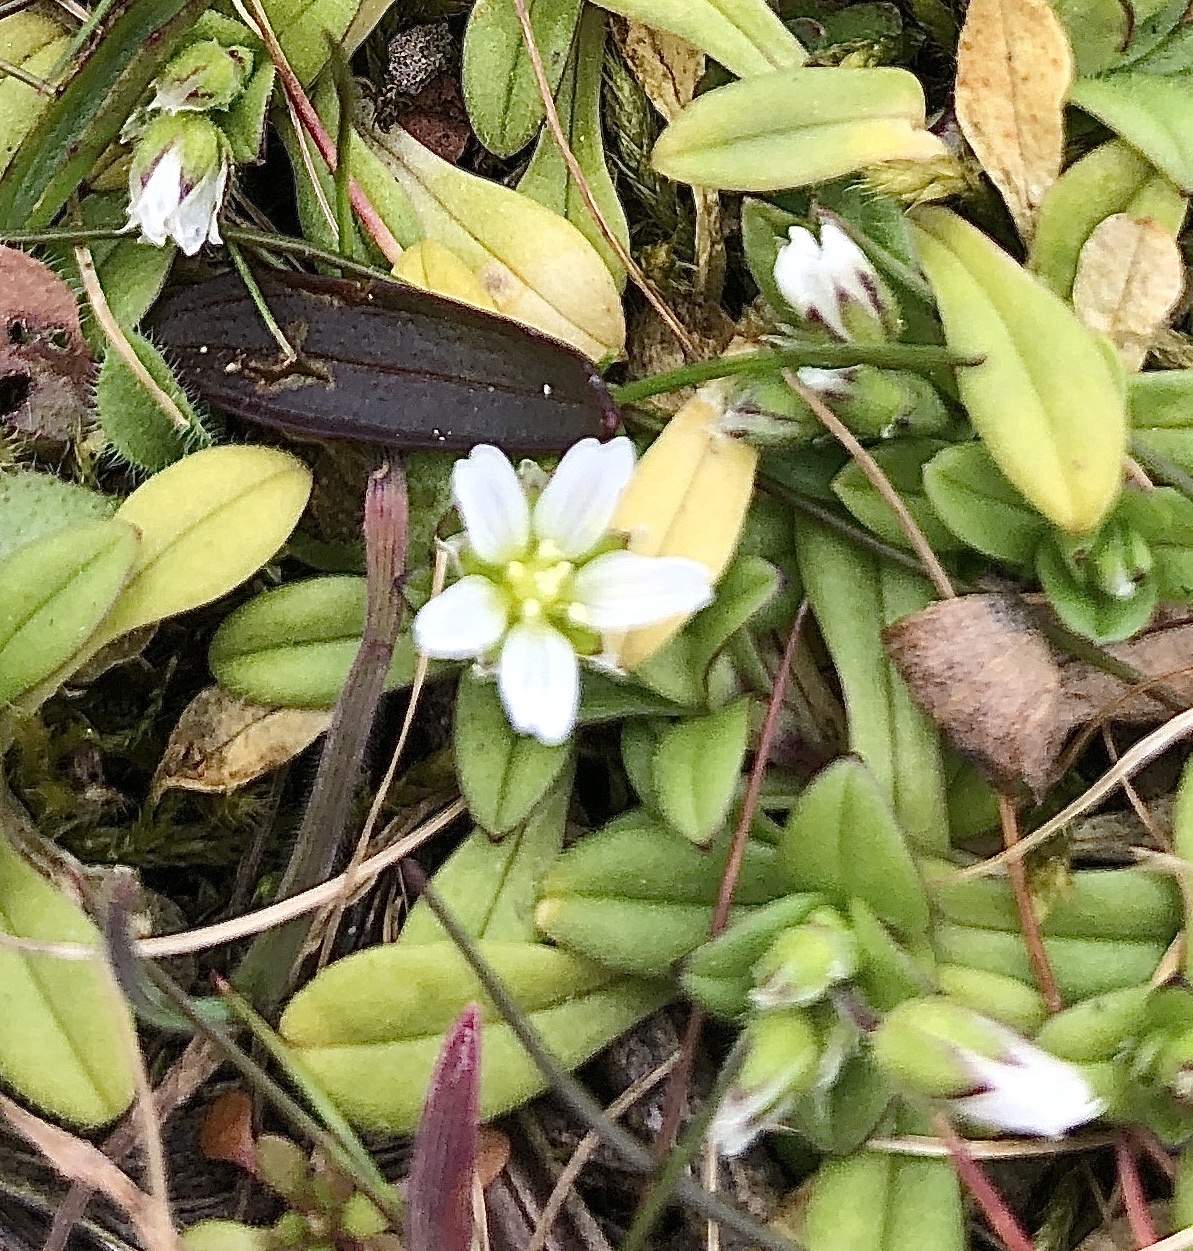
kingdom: Plantae
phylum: Tracheophyta
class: Magnoliopsida
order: Caryophyllales
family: Caryophyllaceae
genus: Cerastium
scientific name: Cerastium semidecandrum
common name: Little mouse-ear
